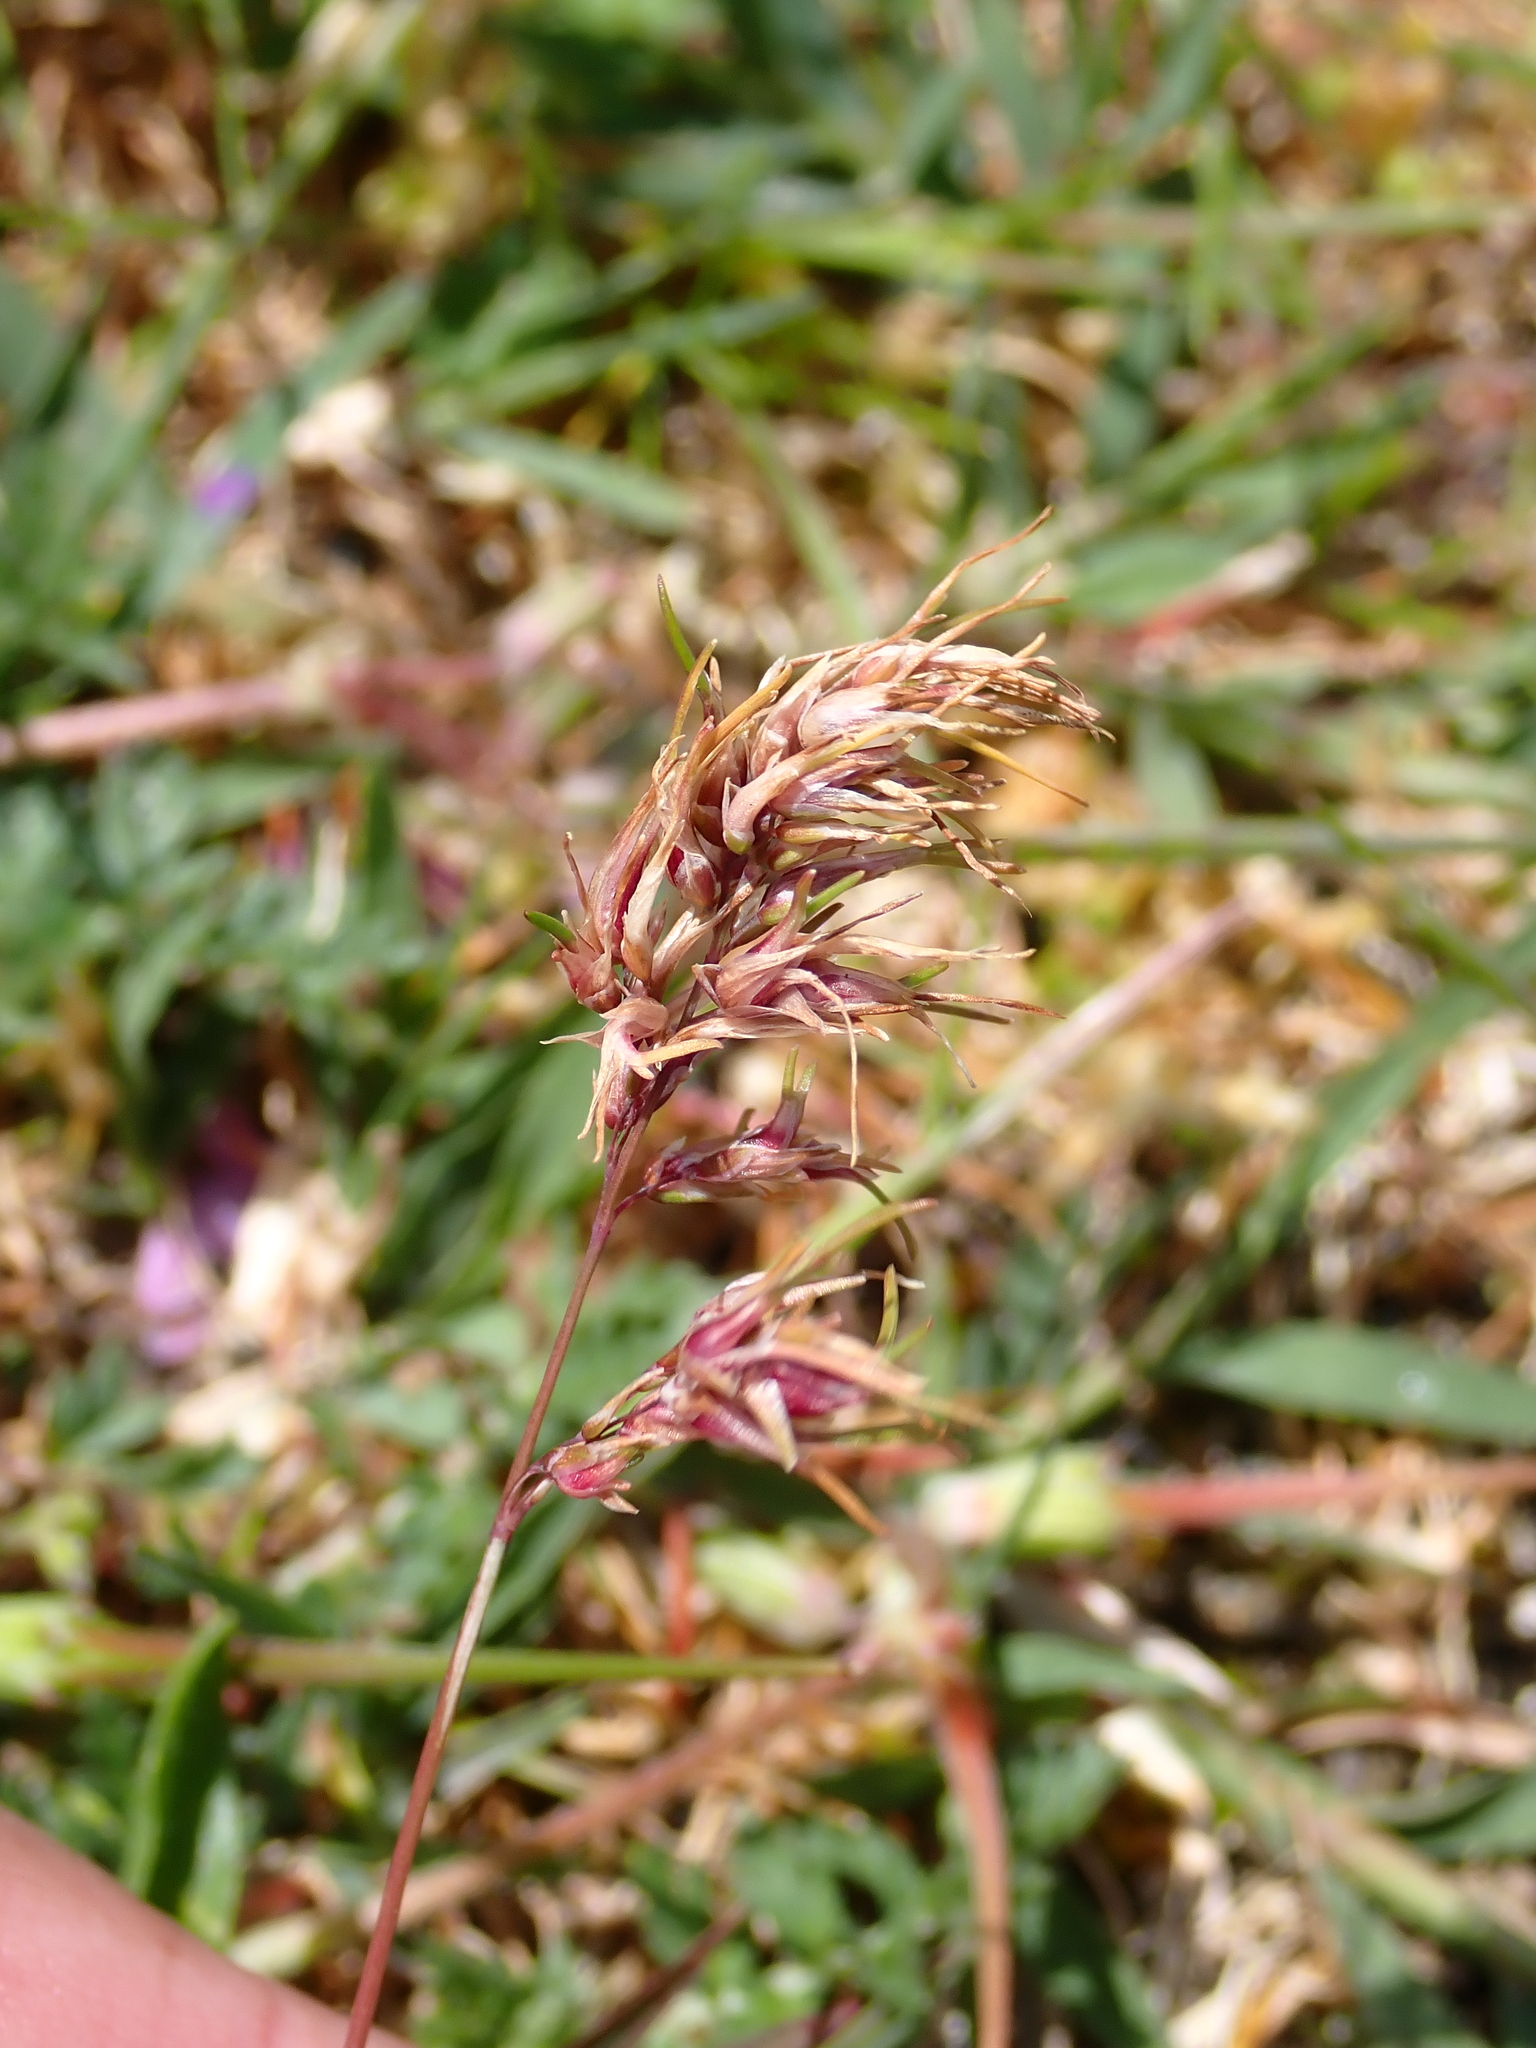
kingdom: Plantae
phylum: Tracheophyta
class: Liliopsida
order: Poales
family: Poaceae
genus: Poa
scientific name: Poa bulbosa
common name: Bulbous bluegrass
